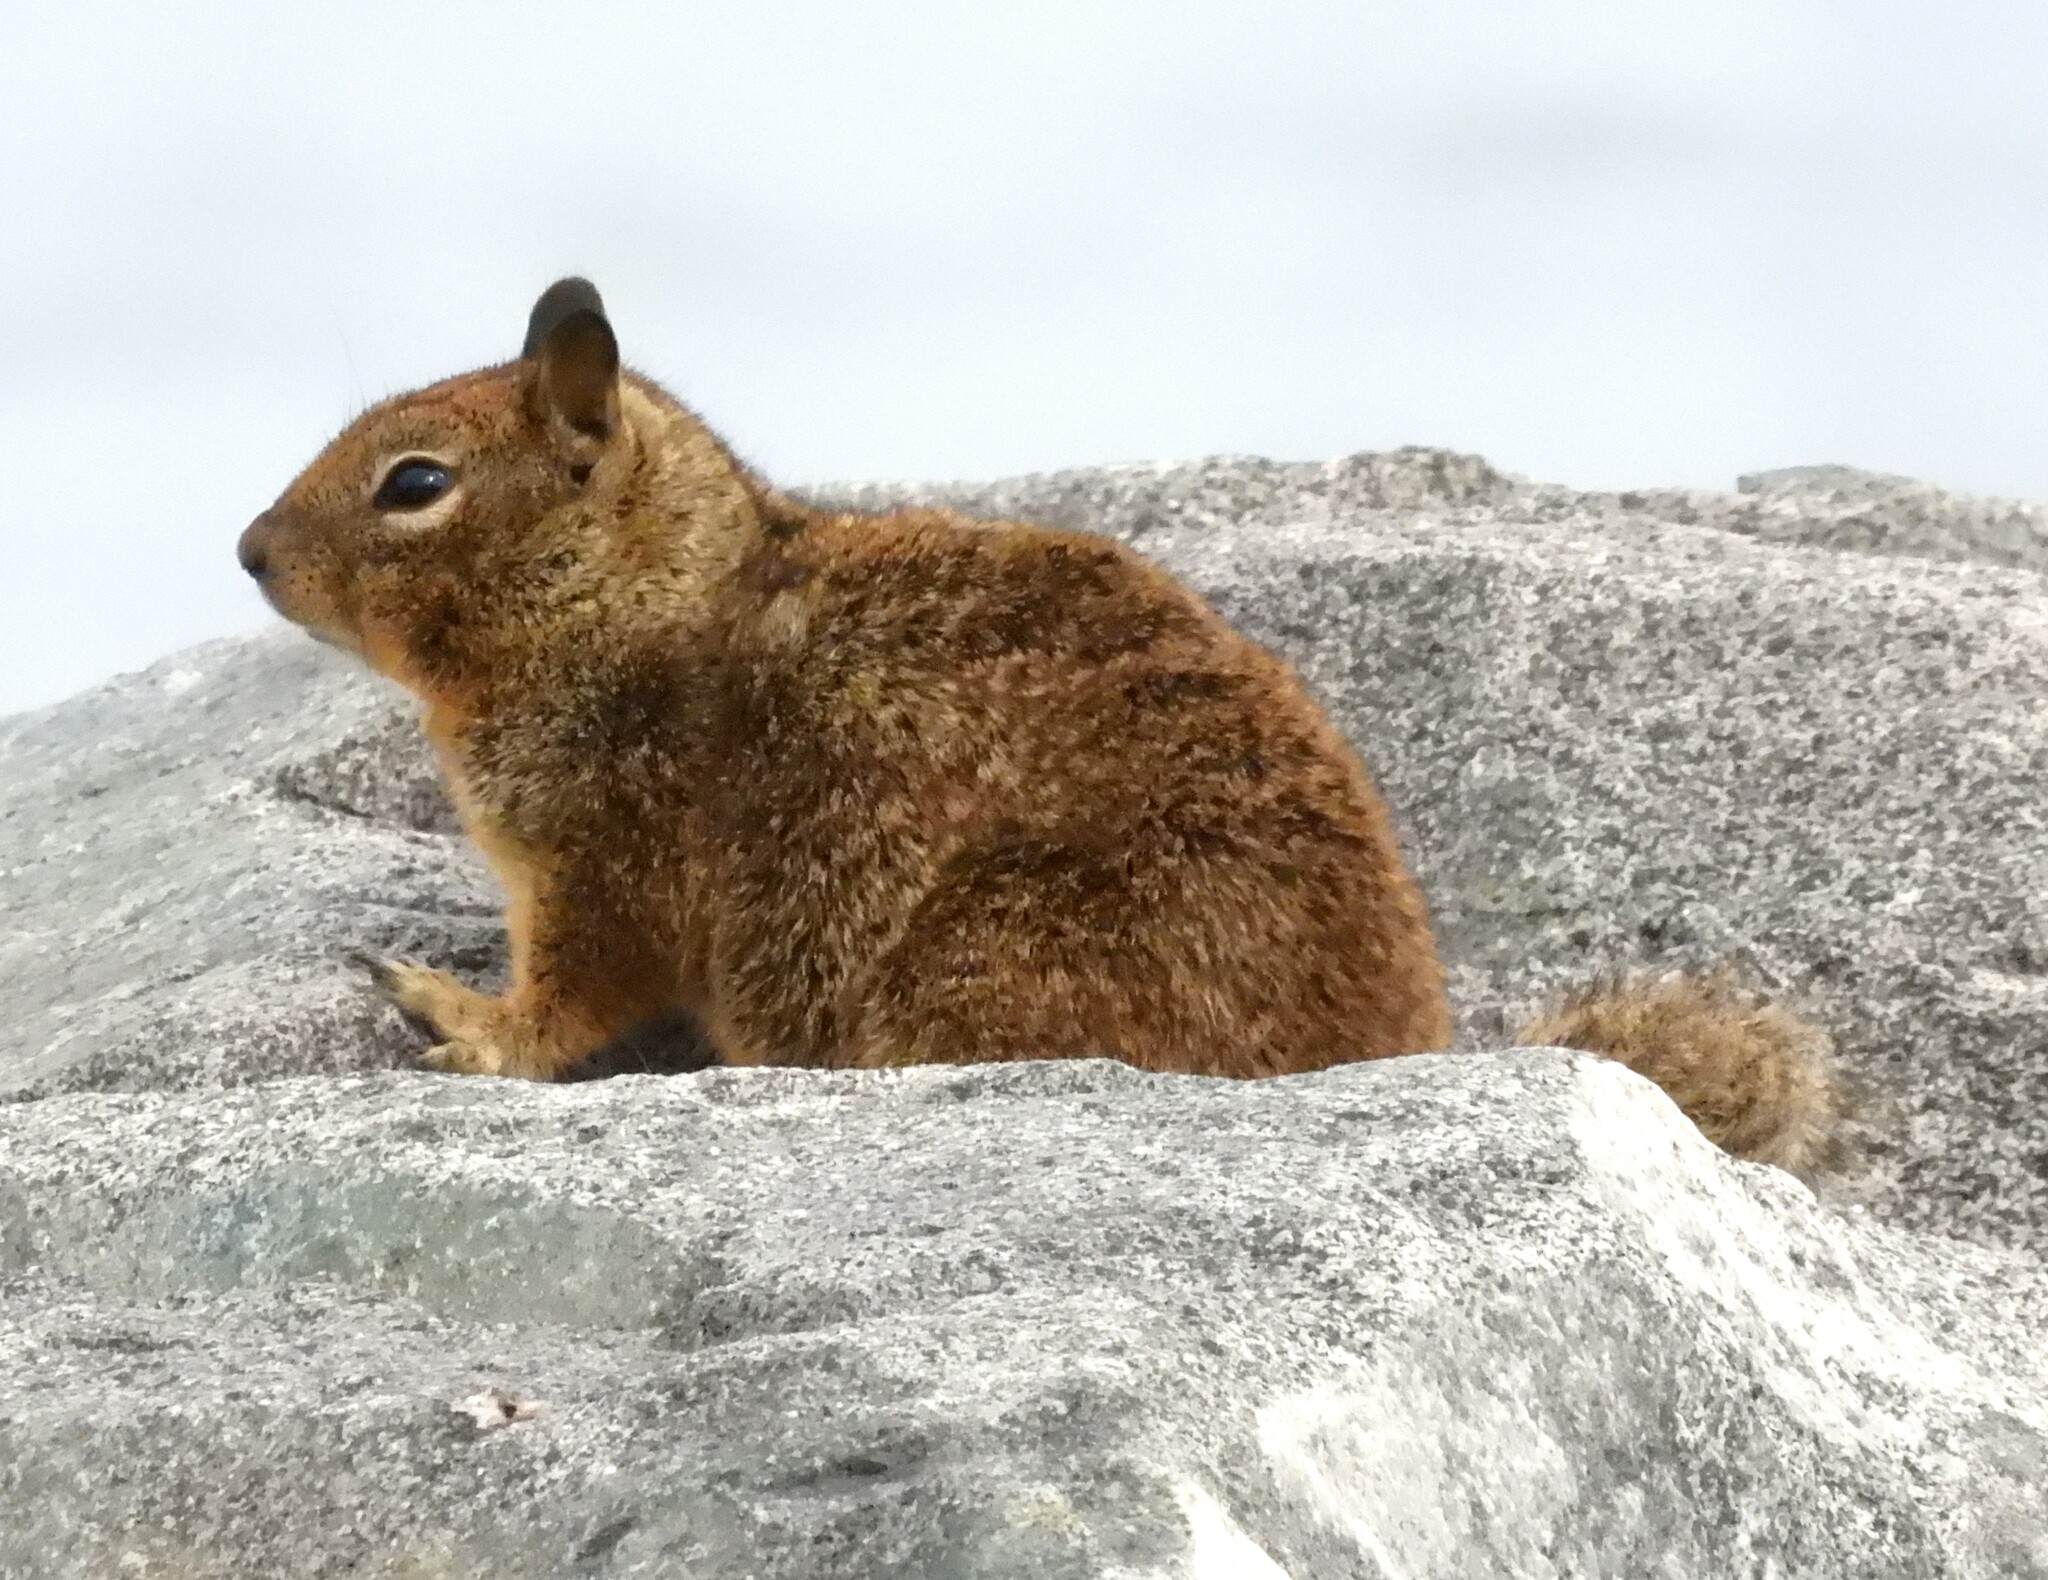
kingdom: Animalia
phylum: Chordata
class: Mammalia
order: Rodentia
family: Sciuridae
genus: Otospermophilus
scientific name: Otospermophilus beecheyi
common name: California ground squirrel
